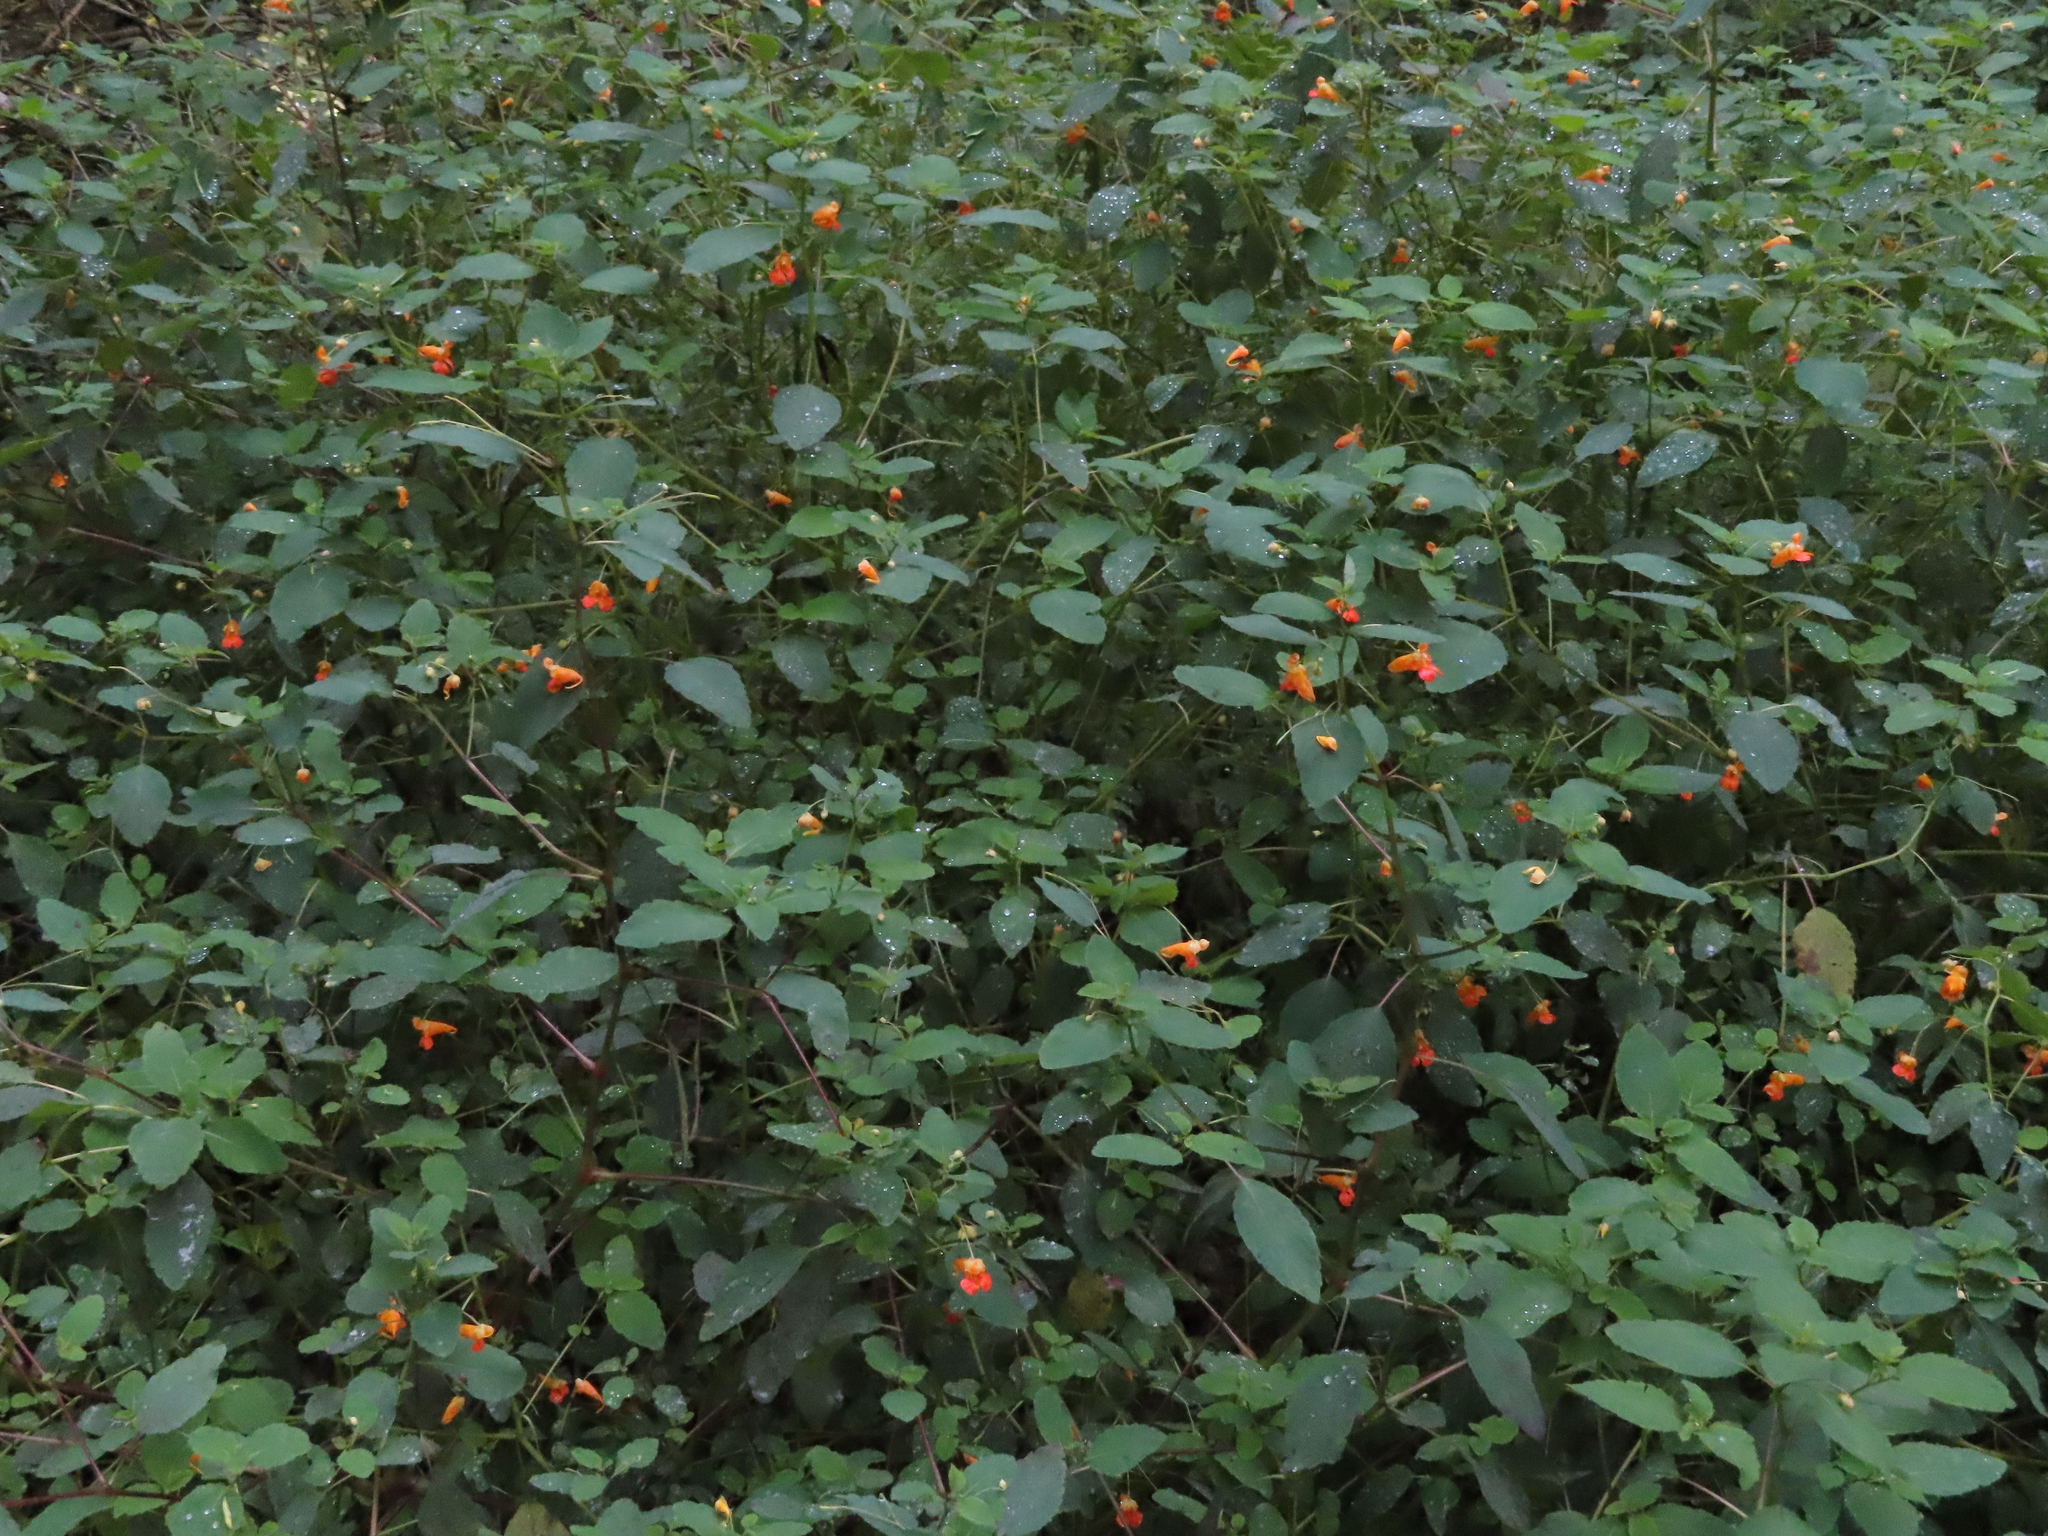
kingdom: Plantae
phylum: Tracheophyta
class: Magnoliopsida
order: Ericales
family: Balsaminaceae
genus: Impatiens
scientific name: Impatiens capensis
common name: Orange balsam
